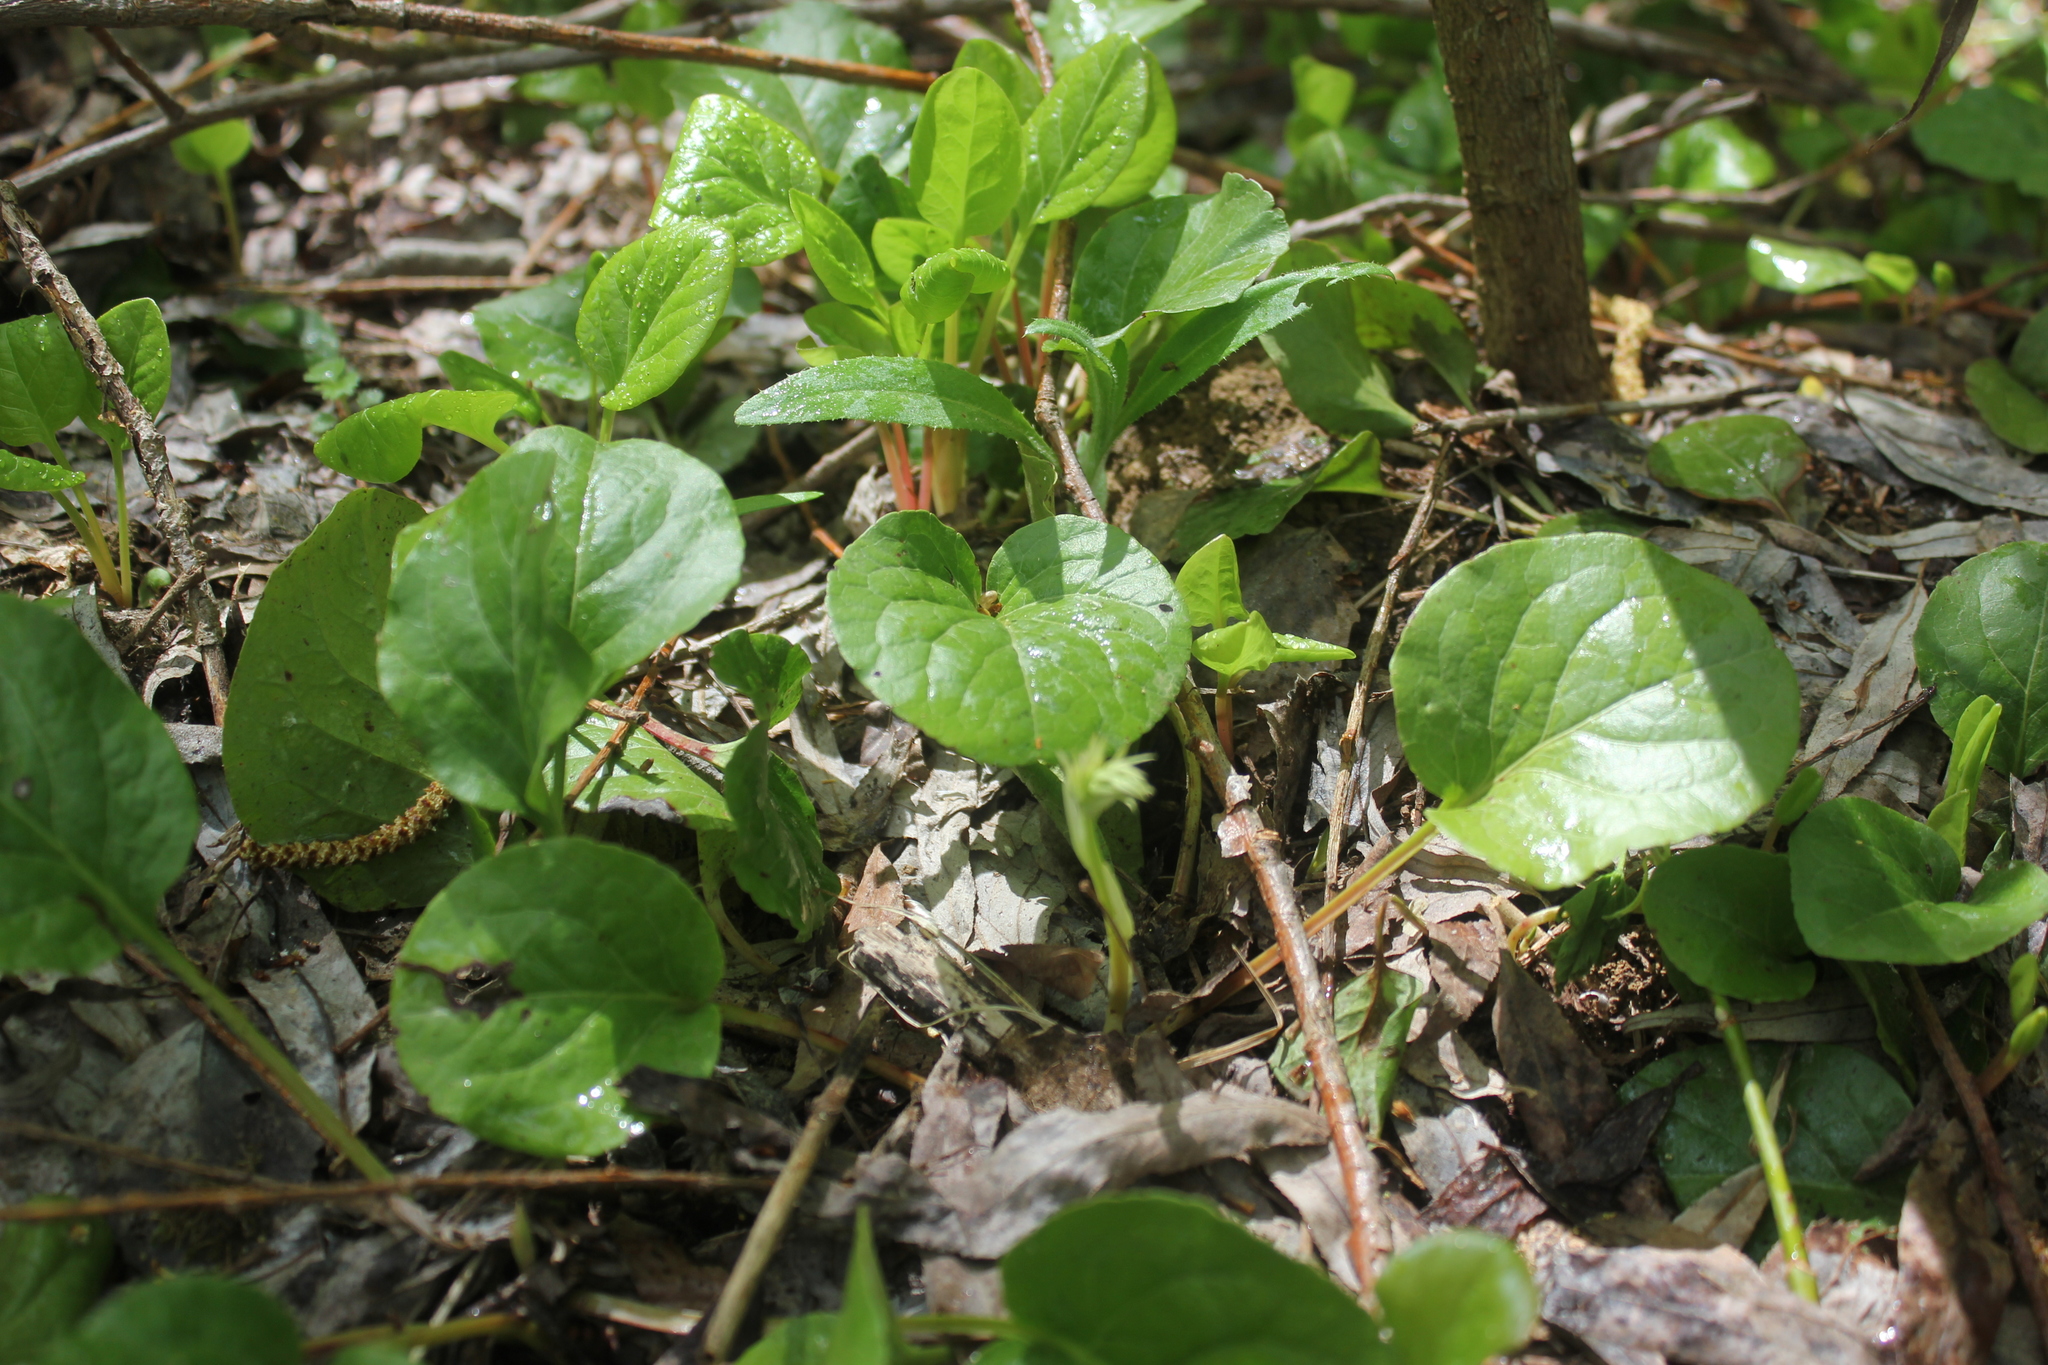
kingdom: Plantae
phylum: Tracheophyta
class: Magnoliopsida
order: Ericales
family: Ericaceae
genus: Pyrola
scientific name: Pyrola rotundifolia
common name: Round-leaved wintergreen
